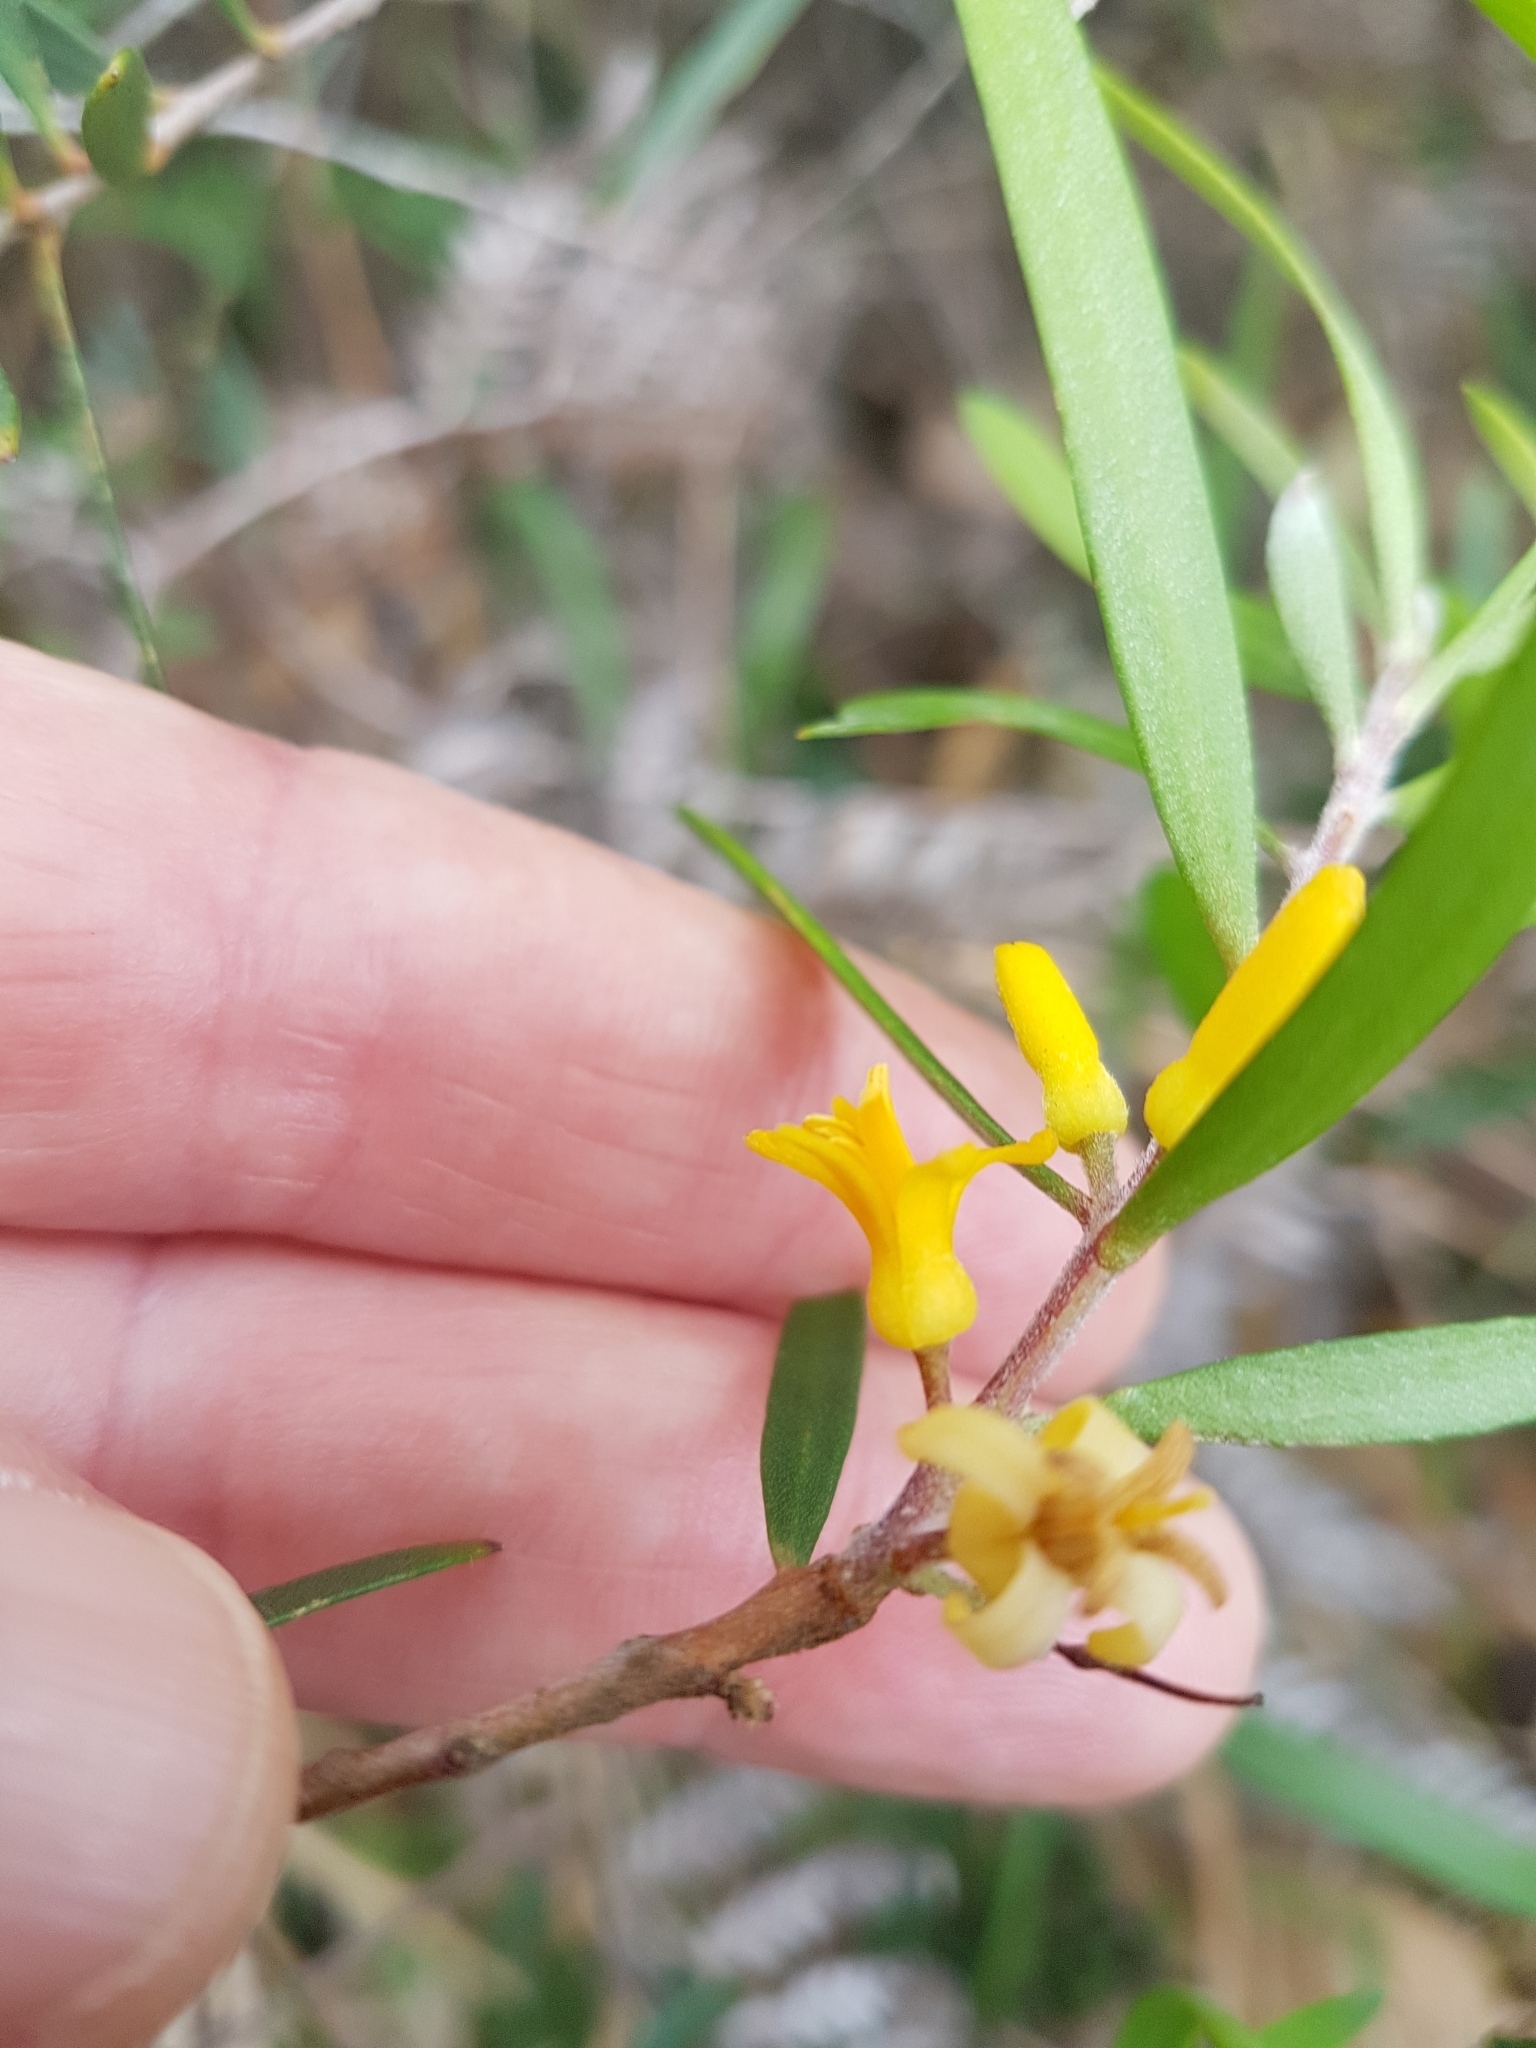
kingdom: Plantae
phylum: Tracheophyta
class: Magnoliopsida
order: Proteales
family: Proteaceae
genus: Persoonia
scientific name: Persoonia linearis
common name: Narrow-leaf geebung
